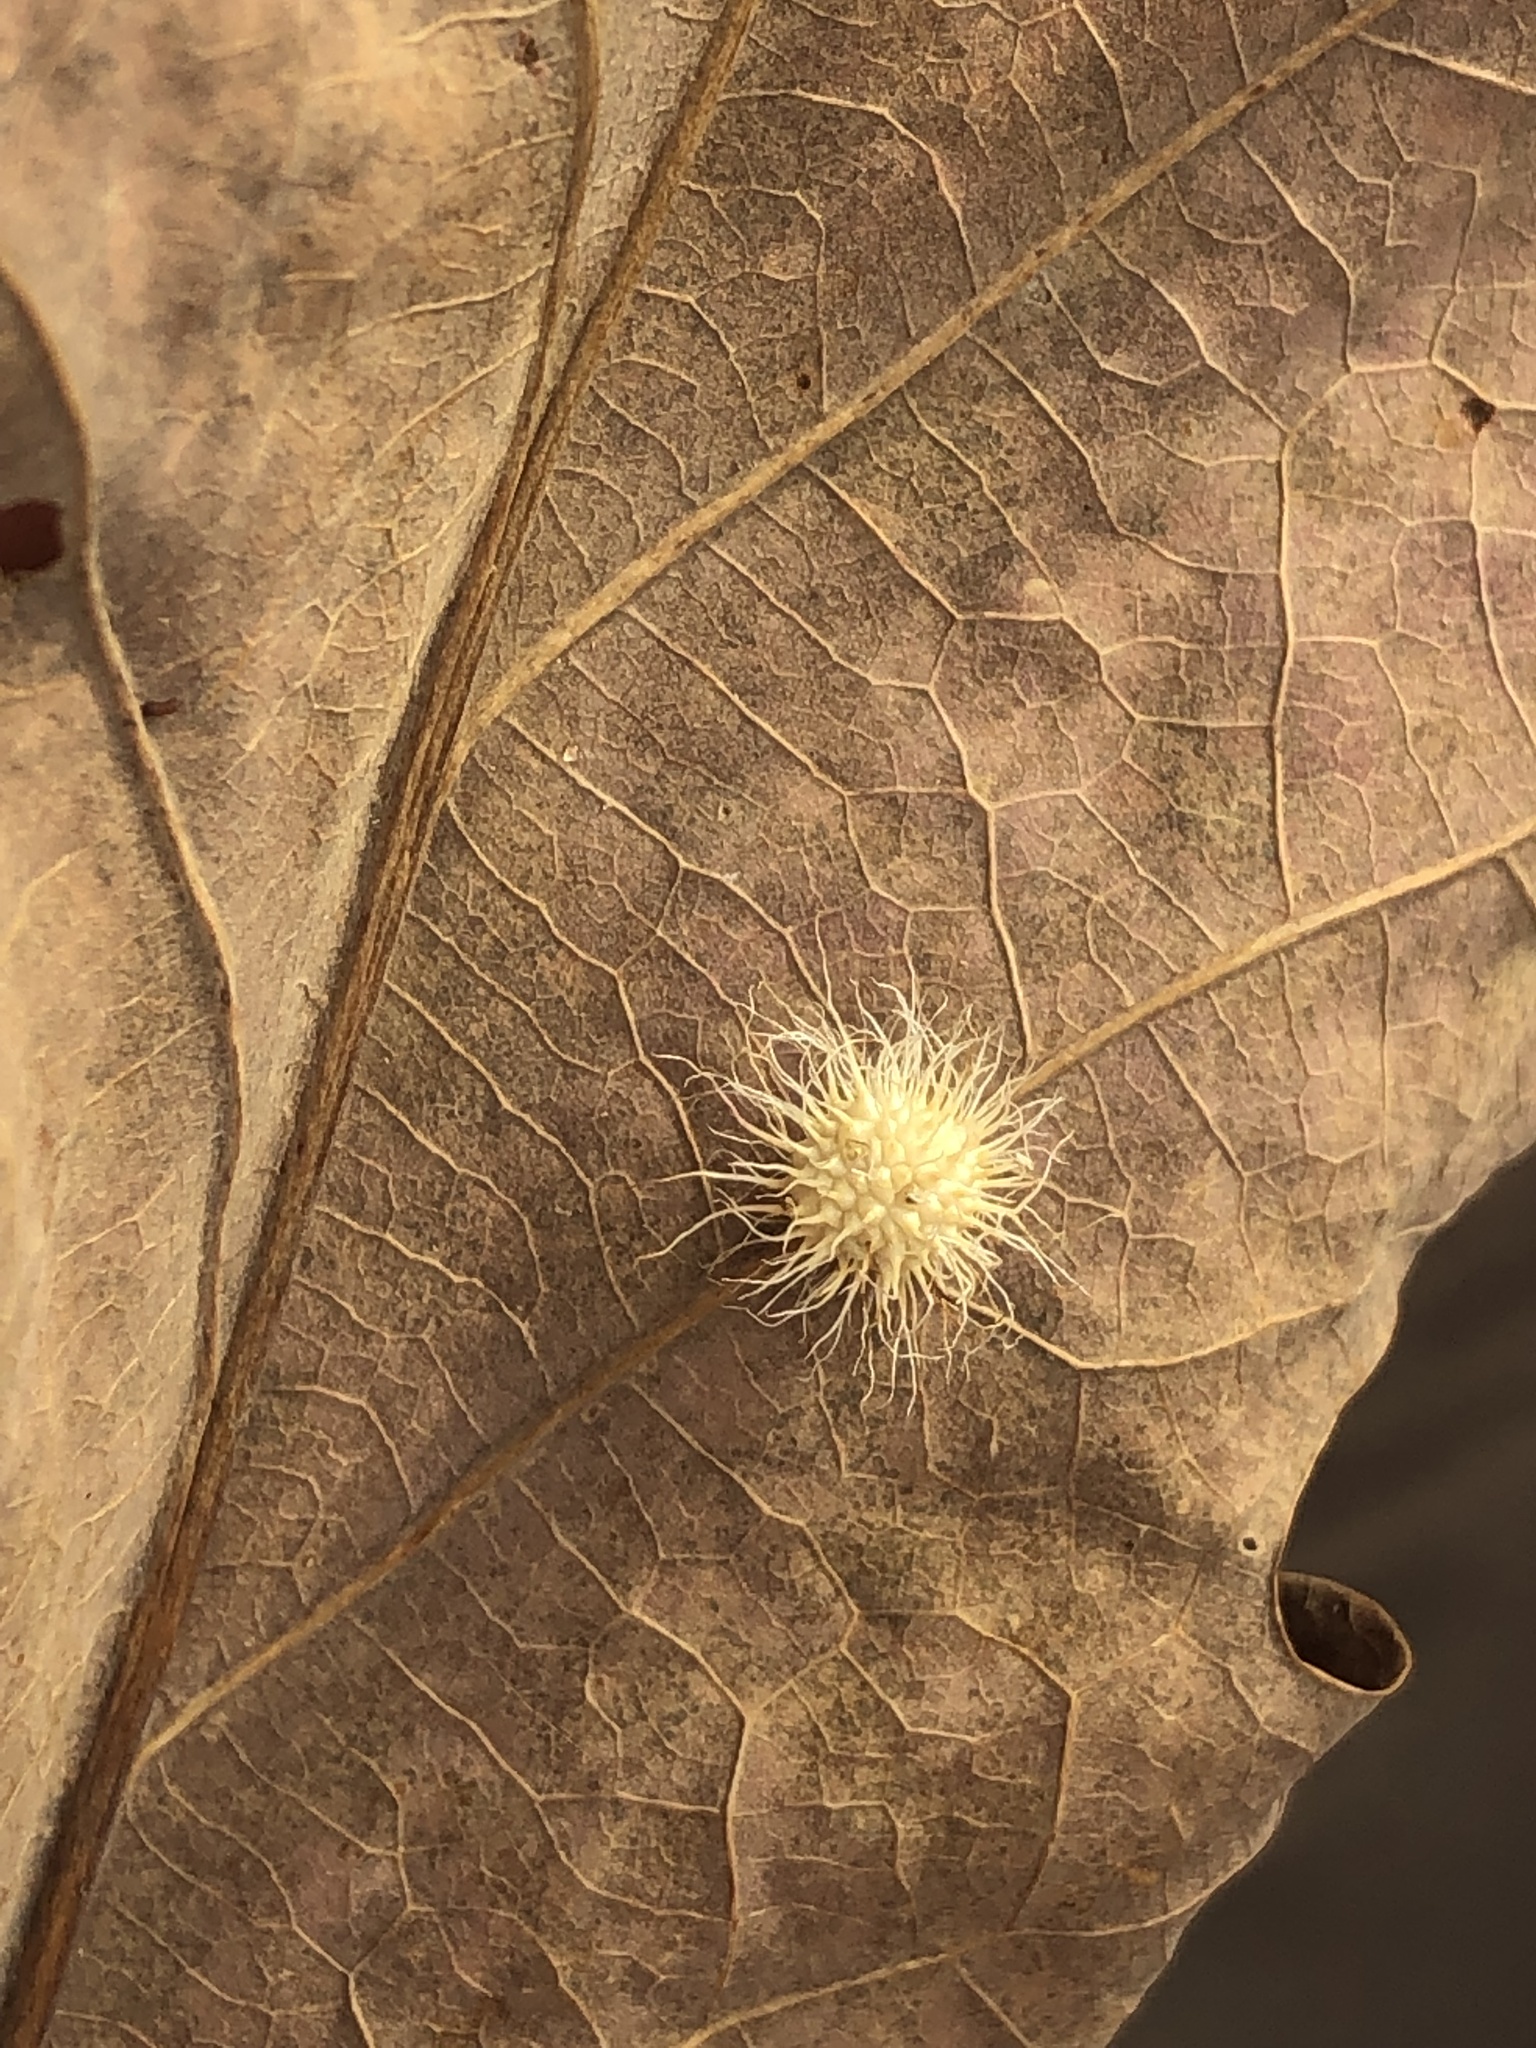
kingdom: Animalia
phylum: Arthropoda
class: Insecta
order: Hymenoptera
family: Cynipidae
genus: Acraspis
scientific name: Acraspis erinacei
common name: Hedgehog gall wasp
